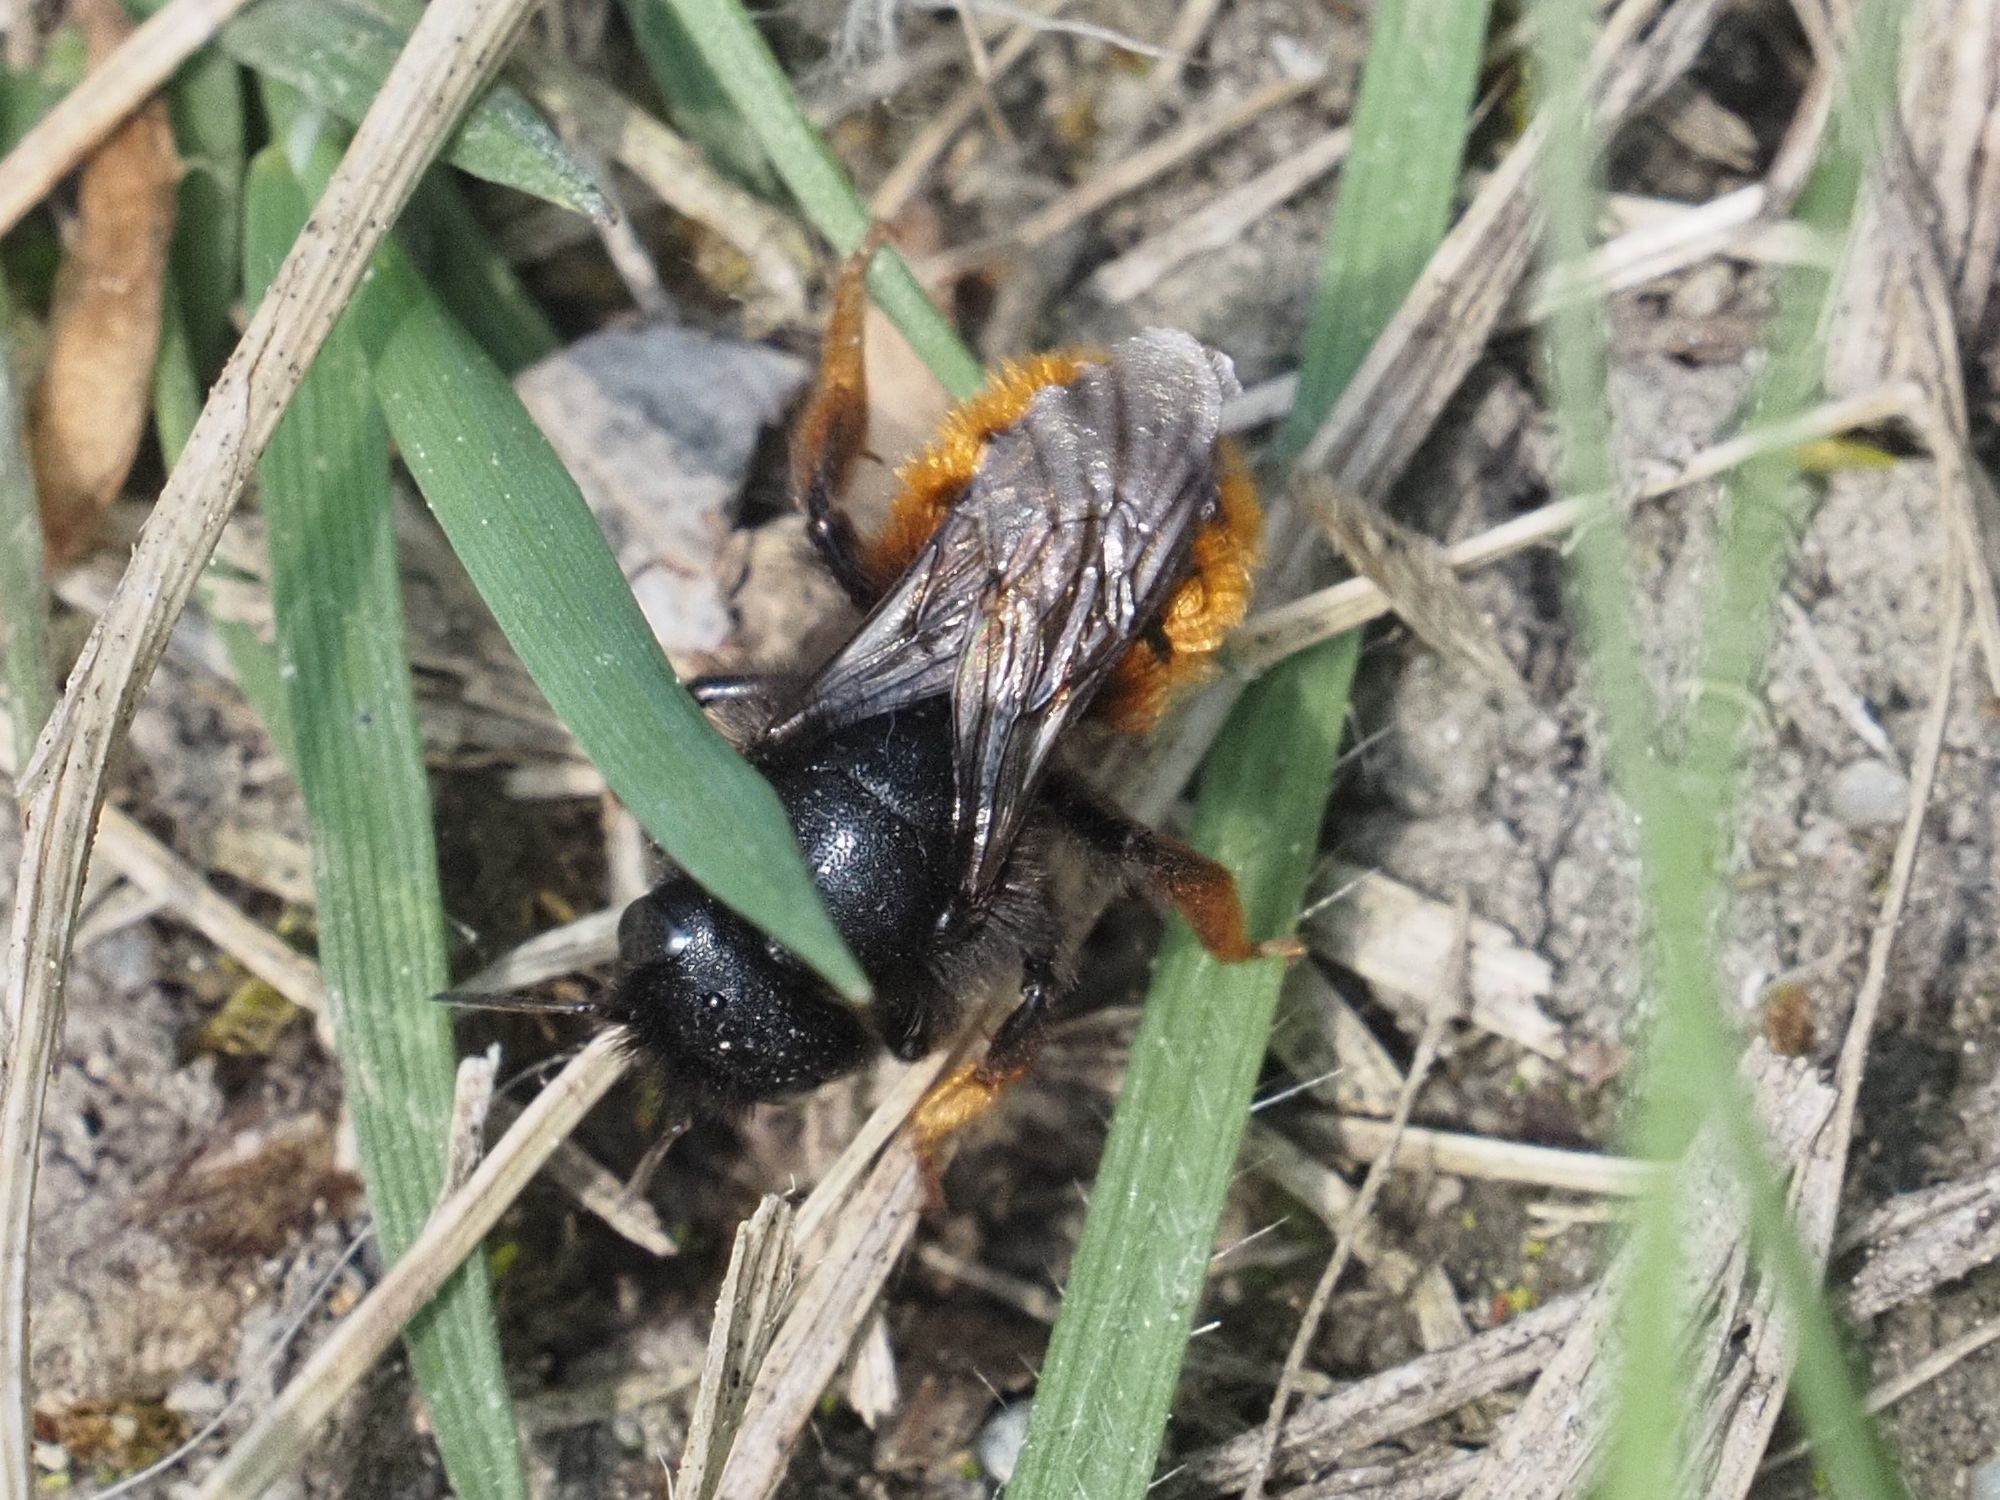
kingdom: Animalia
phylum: Arthropoda
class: Insecta
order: Hymenoptera
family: Megachilidae
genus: Osmia
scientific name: Osmia bicolor
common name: Red-tailed mason bee
